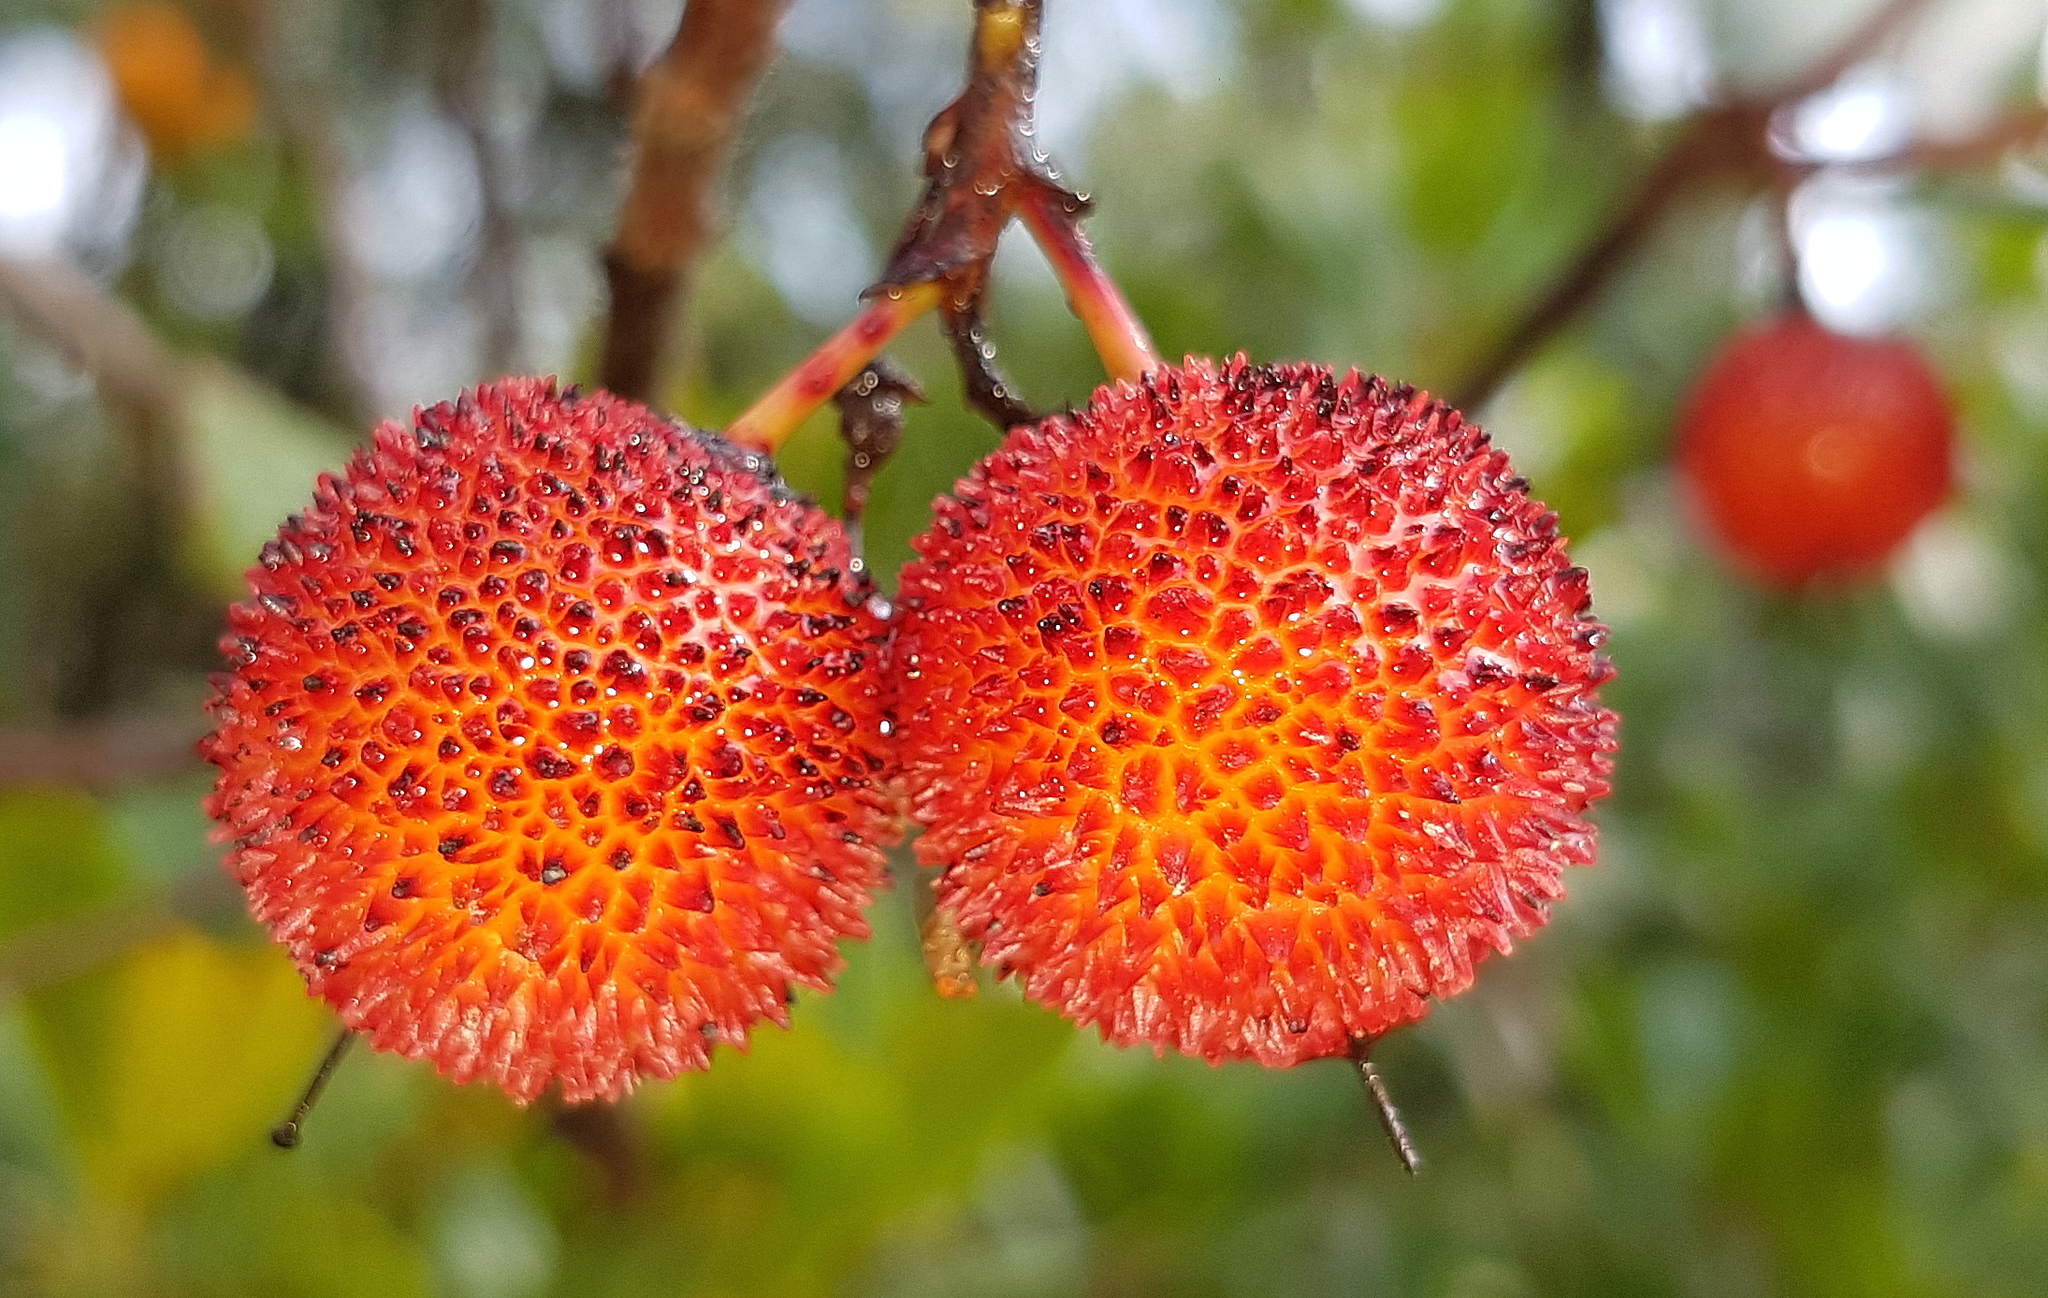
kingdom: Plantae
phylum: Tracheophyta
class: Magnoliopsida
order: Ericales
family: Ericaceae
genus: Arbutus
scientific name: Arbutus unedo
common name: Strawberry-tree
